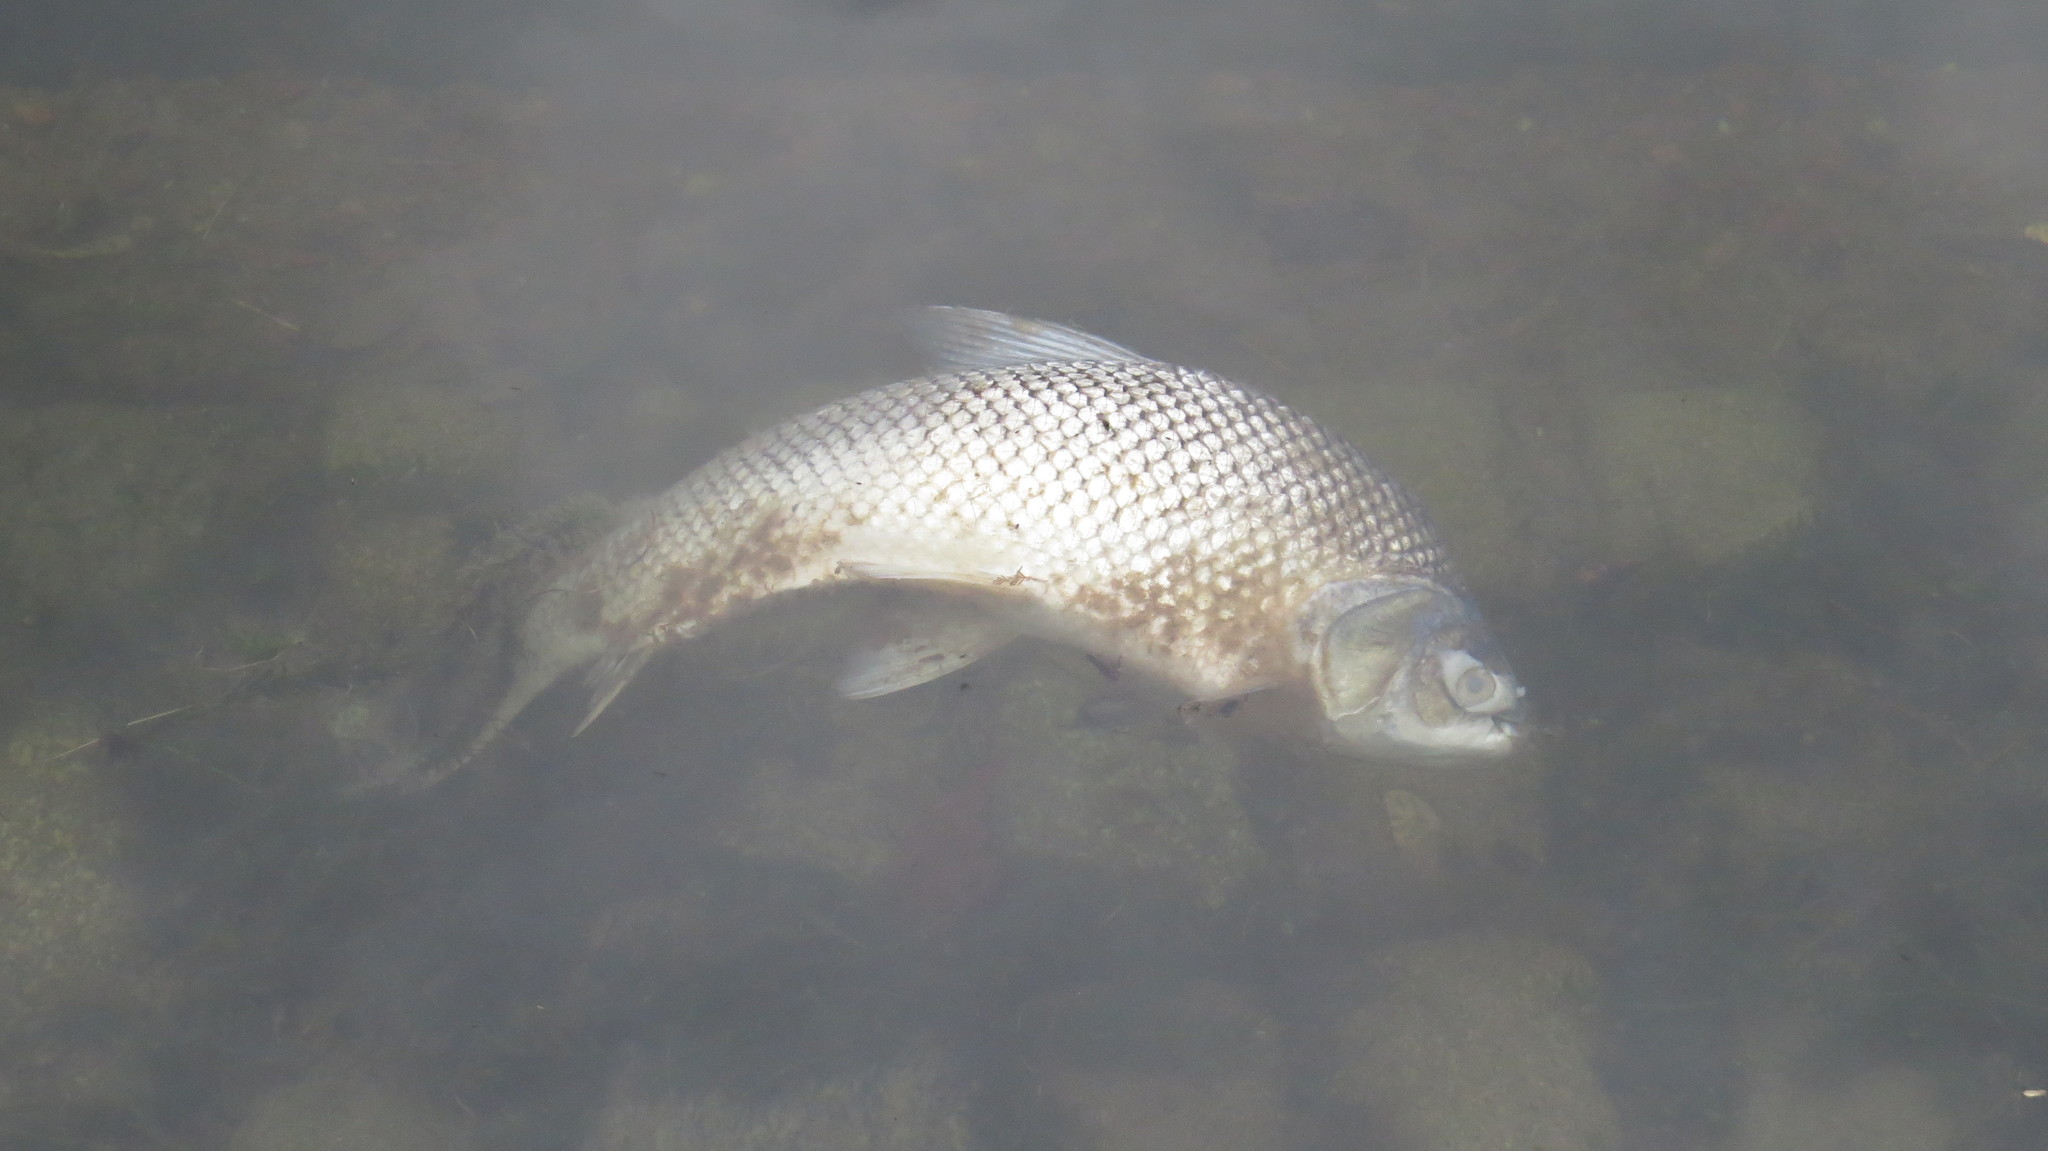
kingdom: Animalia
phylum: Chordata
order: Characiformes
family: Prochilodontidae
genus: Prochilodus
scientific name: Prochilodus lineatus
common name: Curimbata
